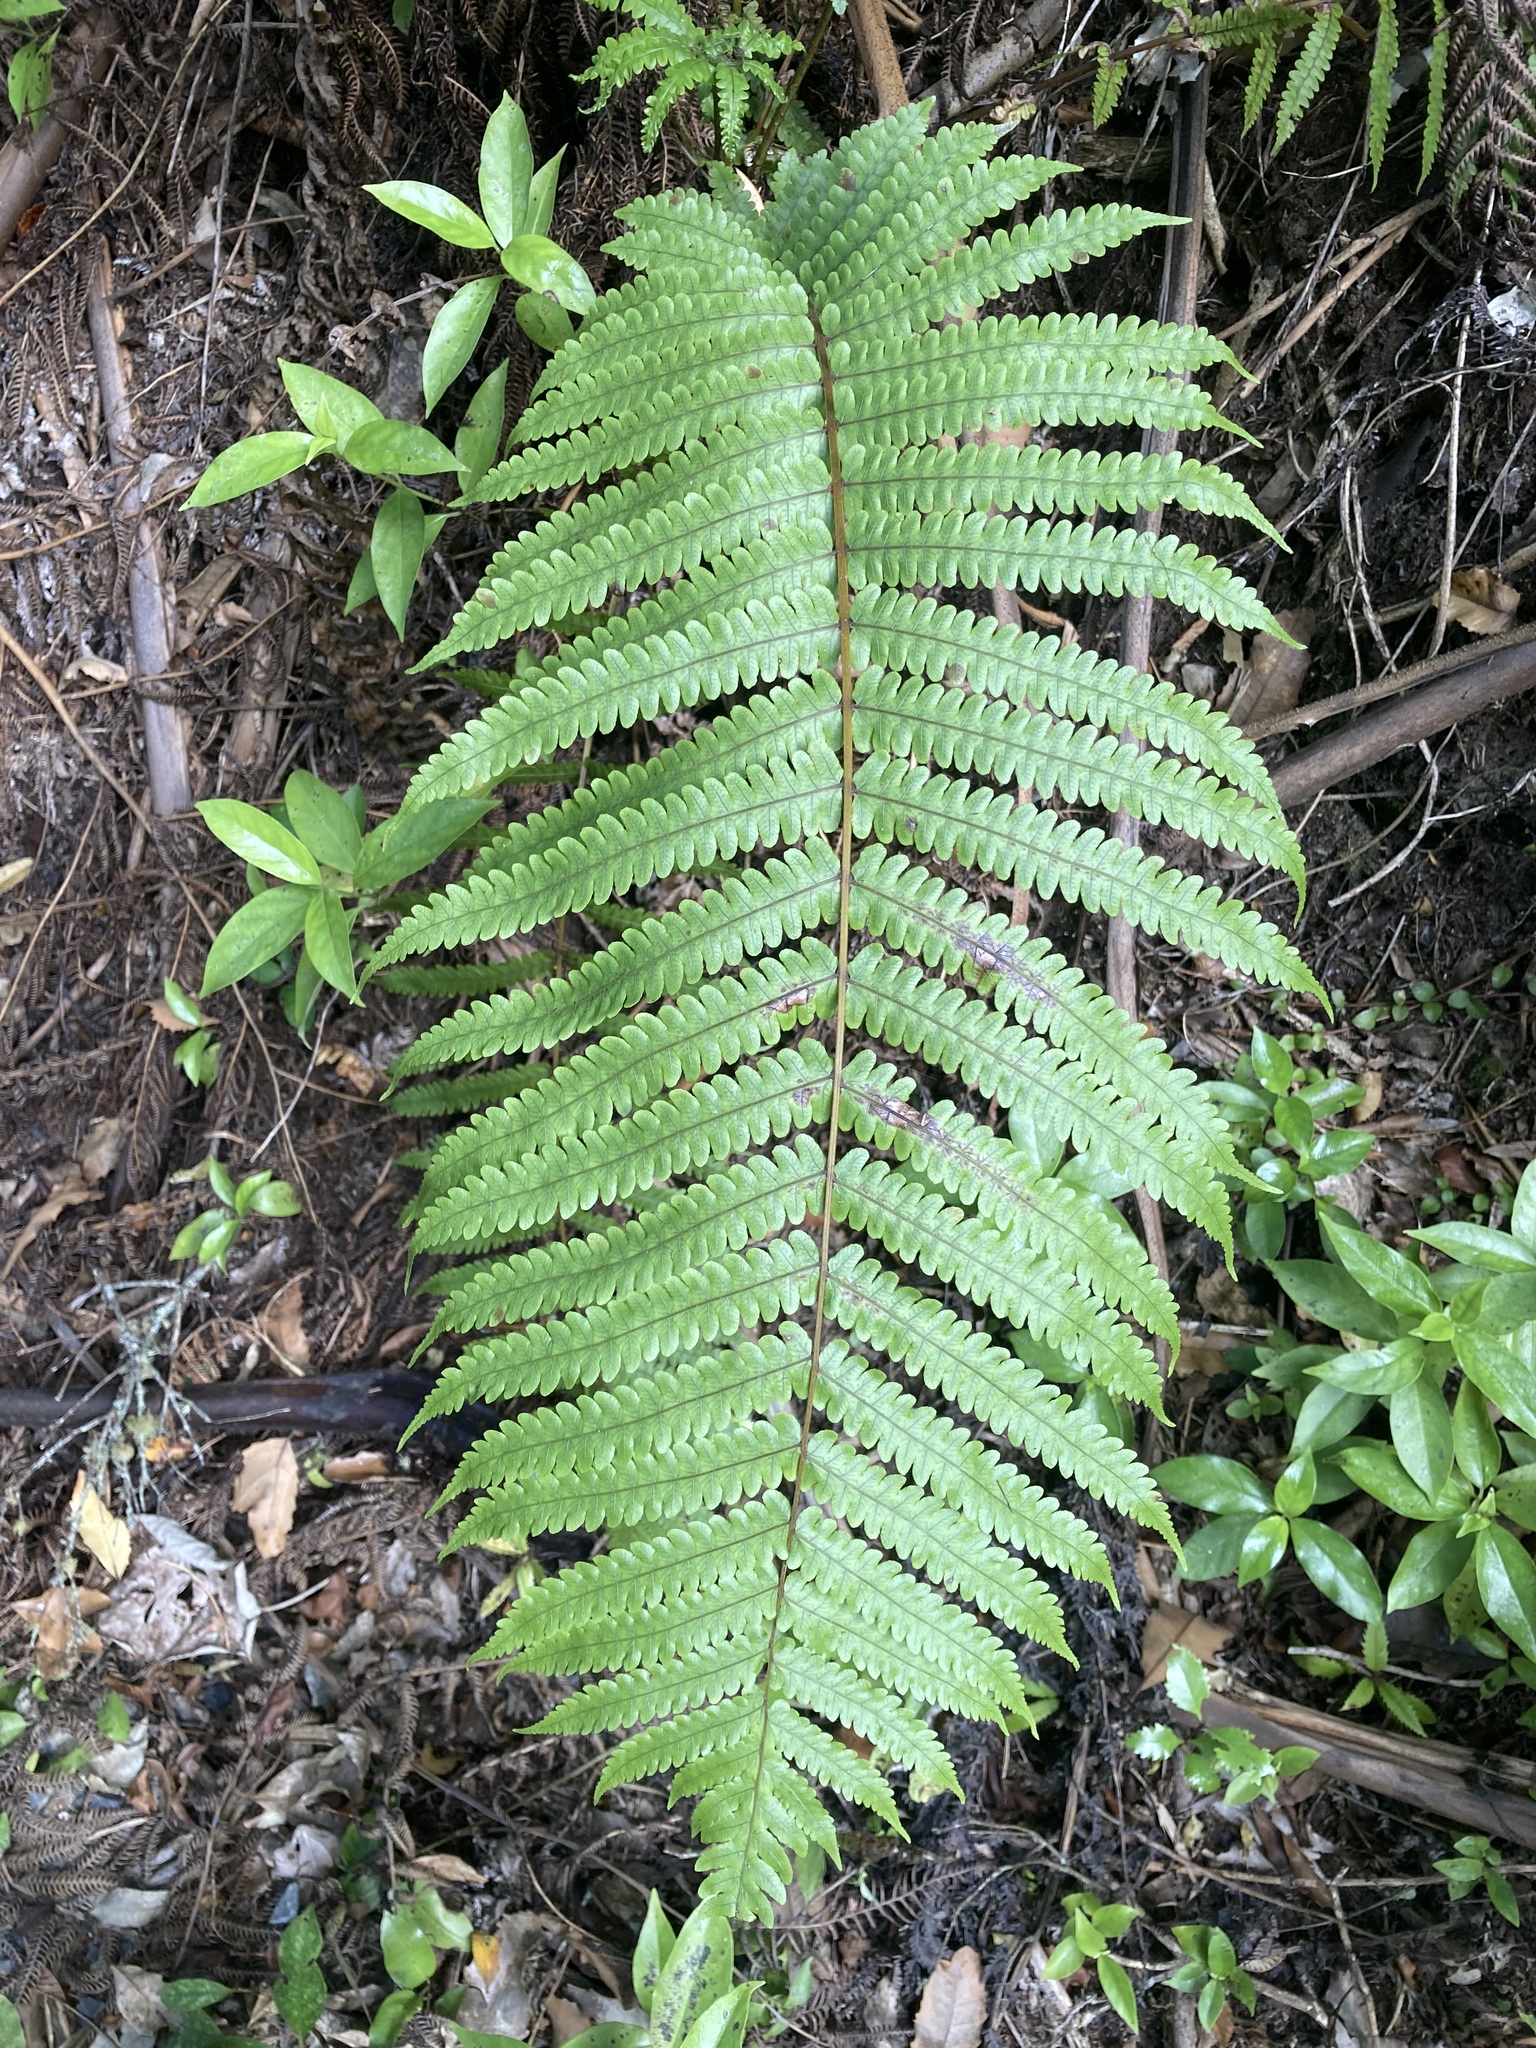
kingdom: Plantae
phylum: Tracheophyta
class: Polypodiopsida
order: Polypodiales
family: Thelypteridaceae
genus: Pakau
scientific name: Pakau pennigera
